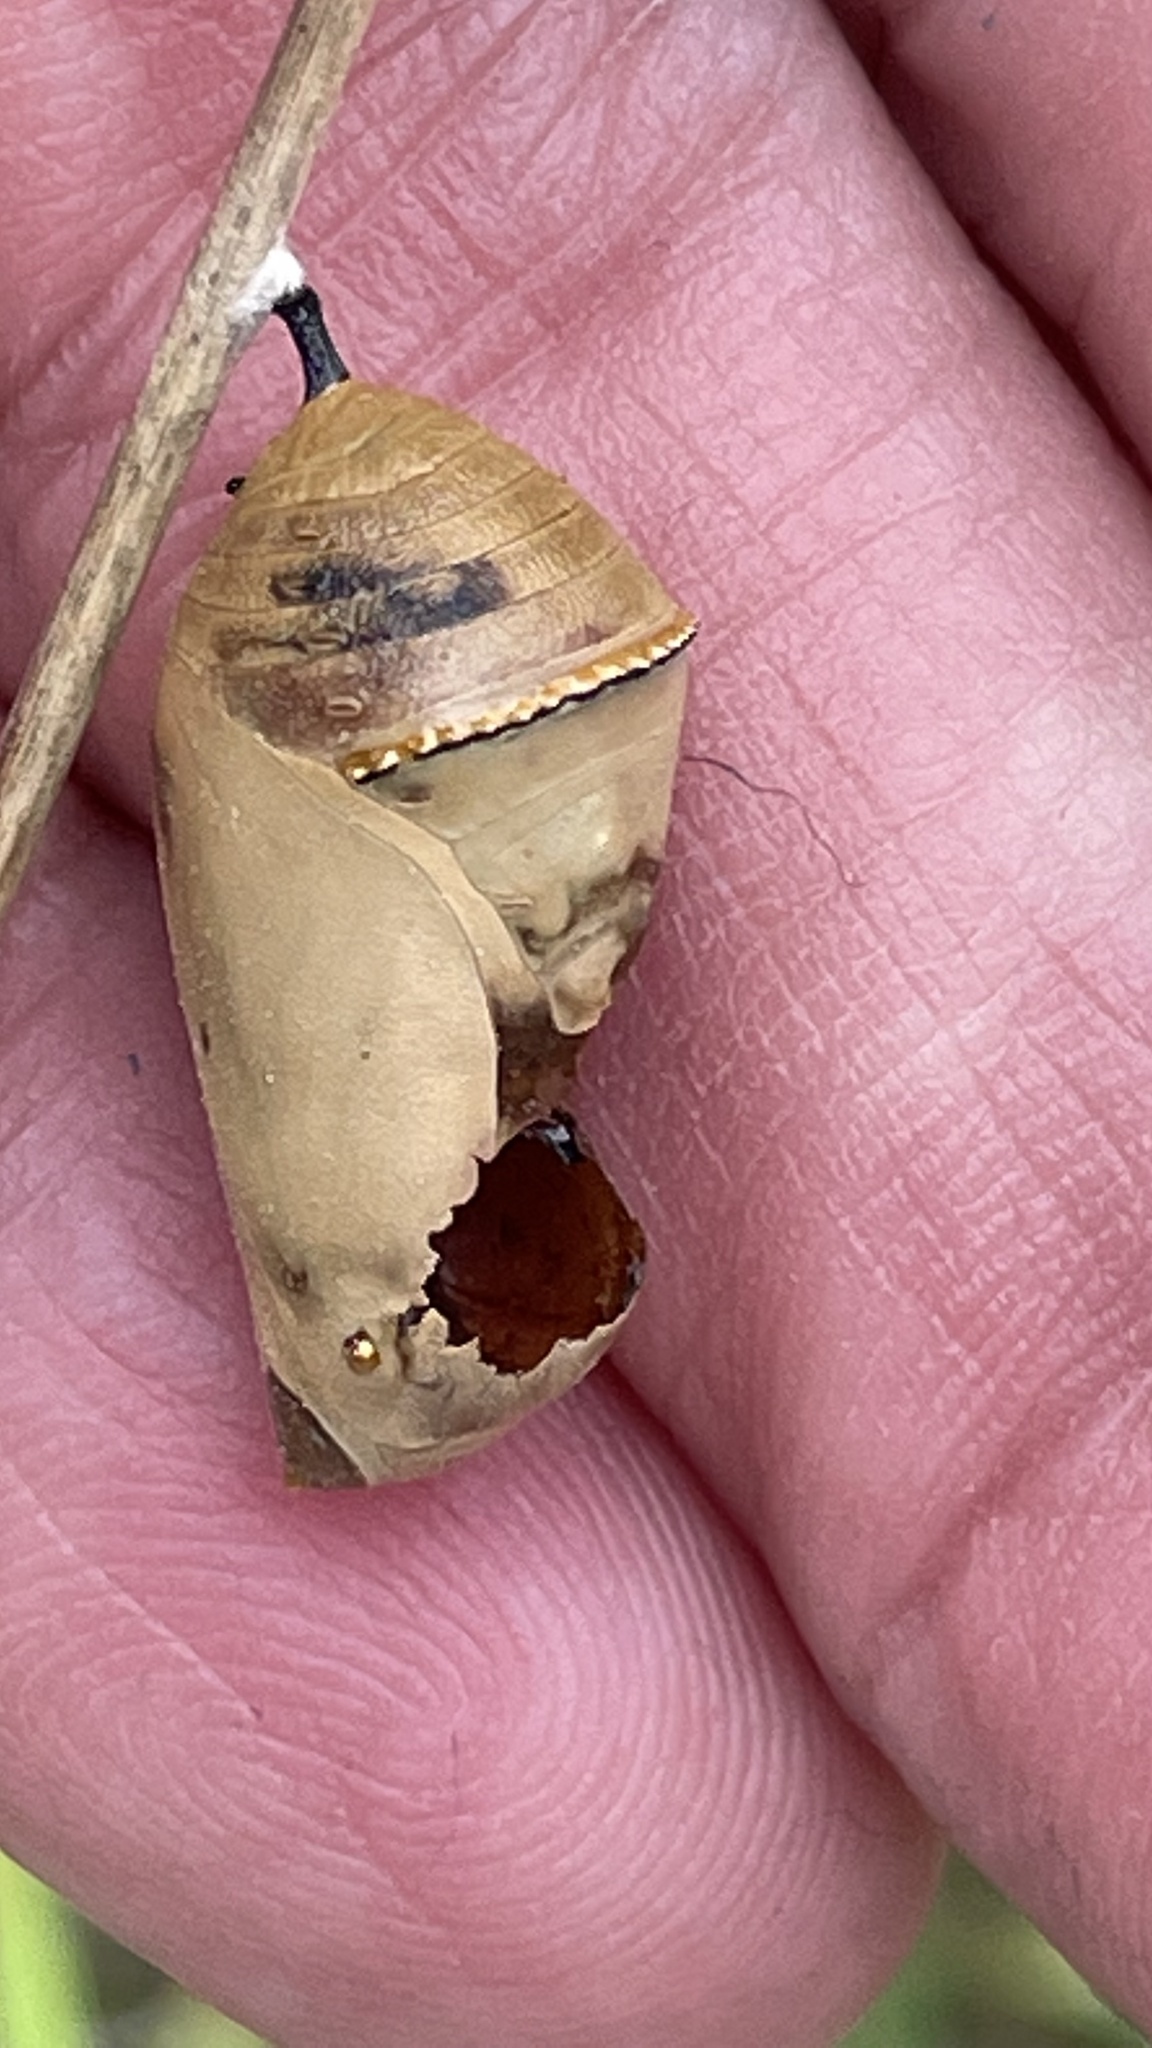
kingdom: Animalia
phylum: Arthropoda
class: Insecta
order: Lepidoptera
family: Nymphalidae
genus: Danaus
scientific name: Danaus plexippus
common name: Monarch
